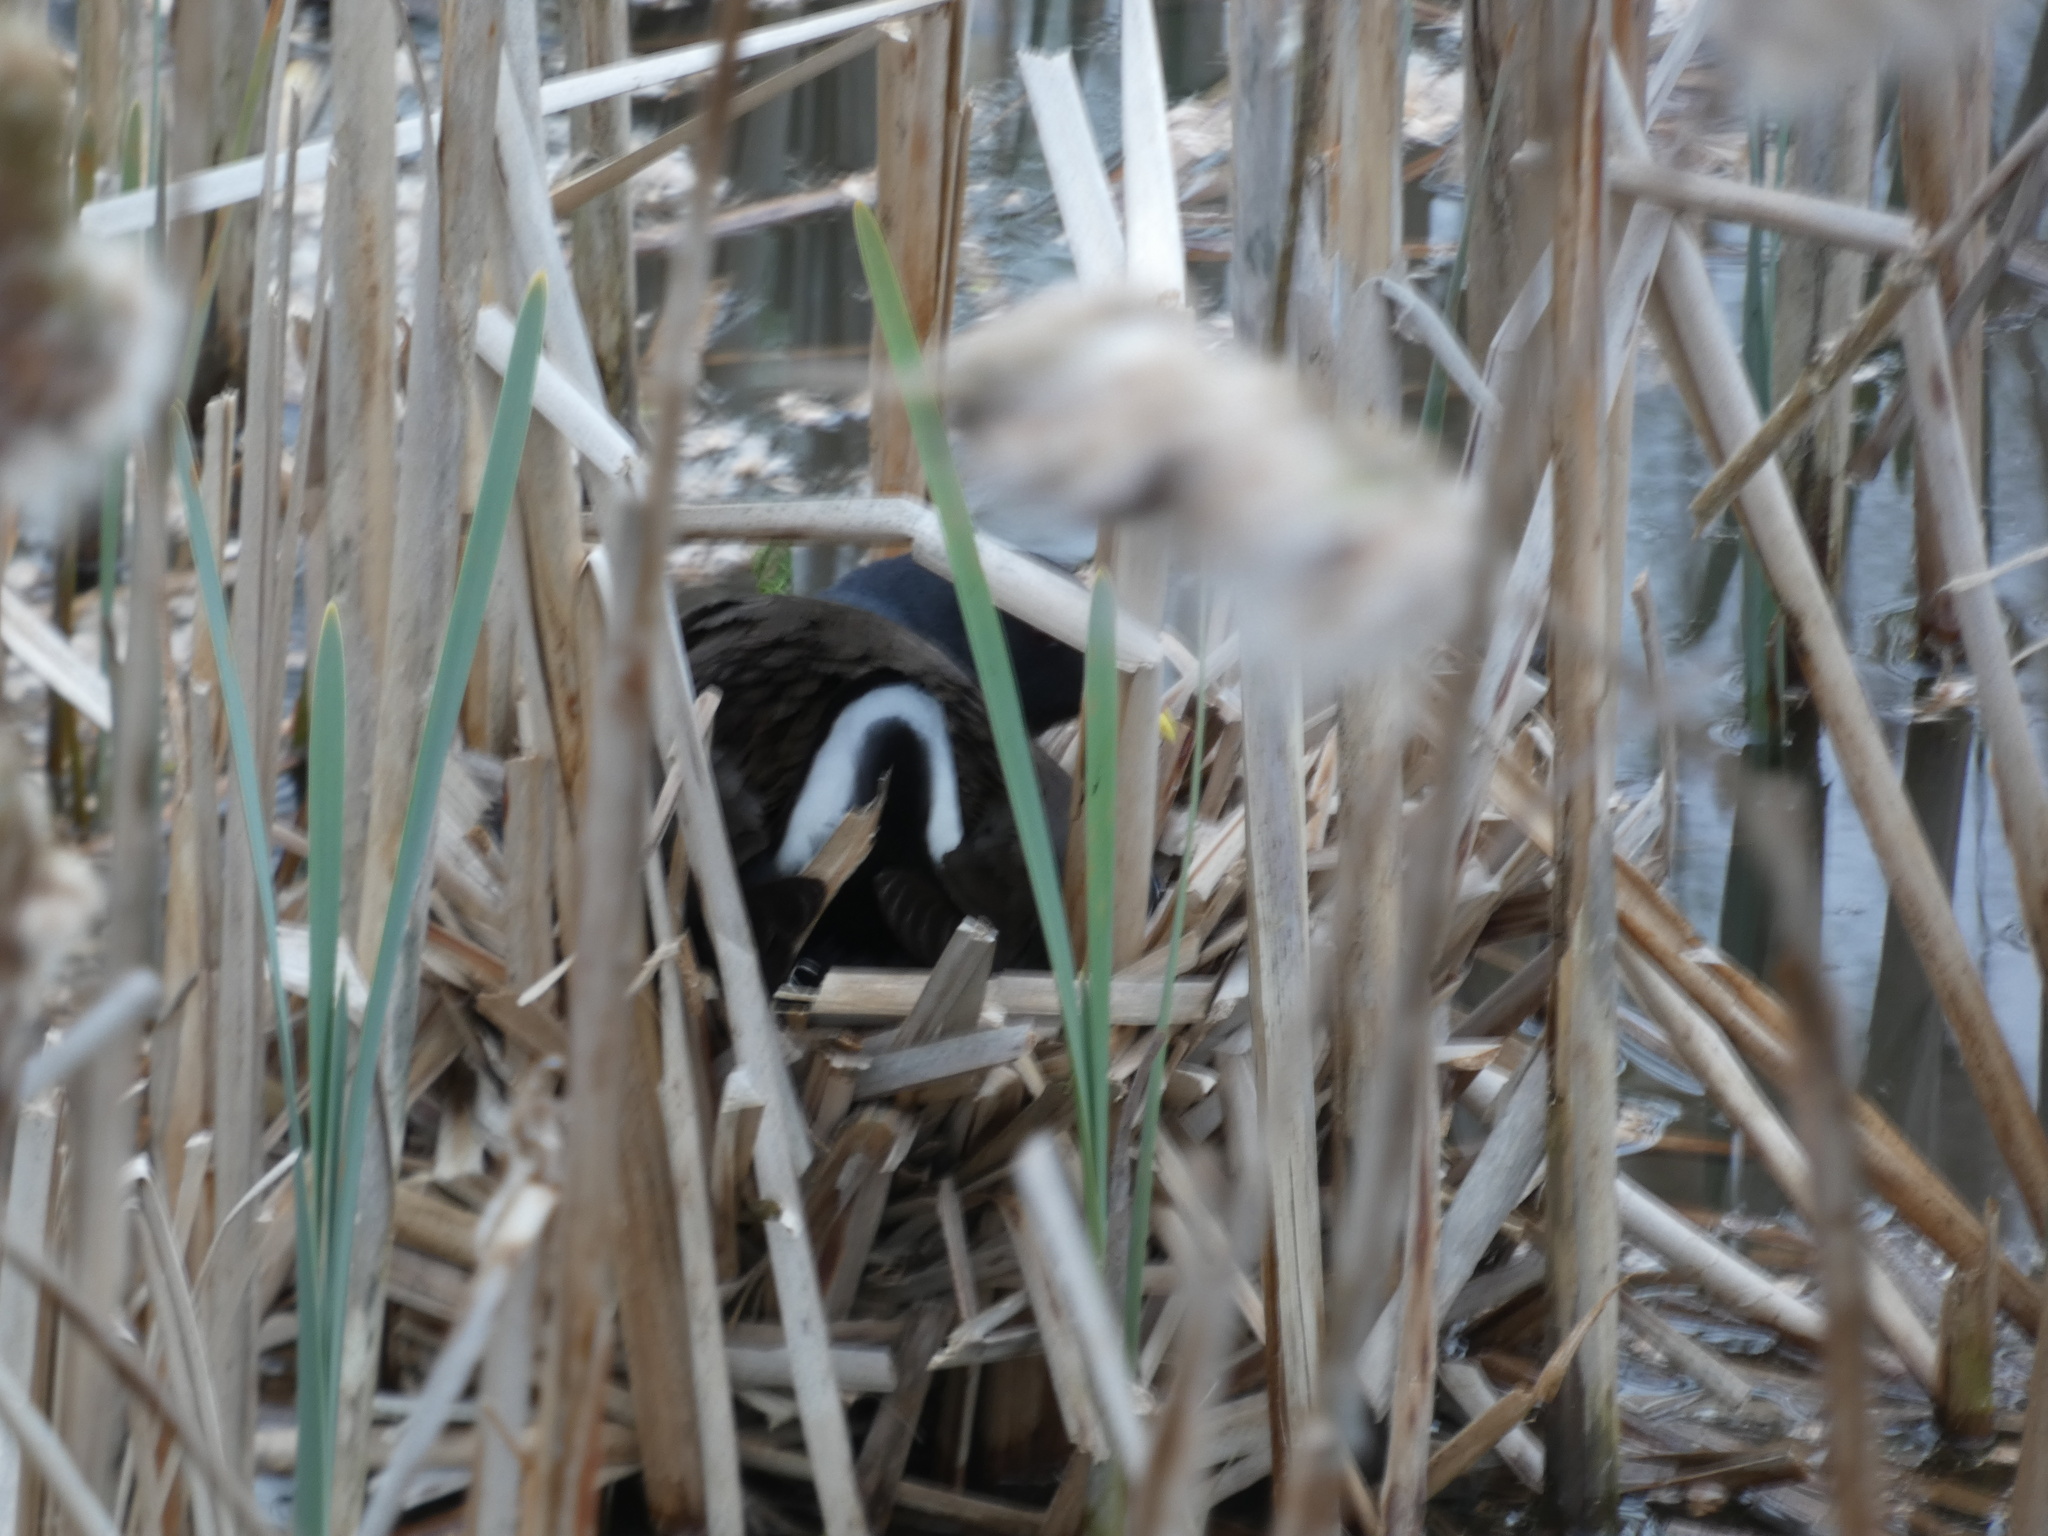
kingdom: Animalia
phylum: Chordata
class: Aves
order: Gruiformes
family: Rallidae
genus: Gallinula
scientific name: Gallinula chloropus
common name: Common moorhen
